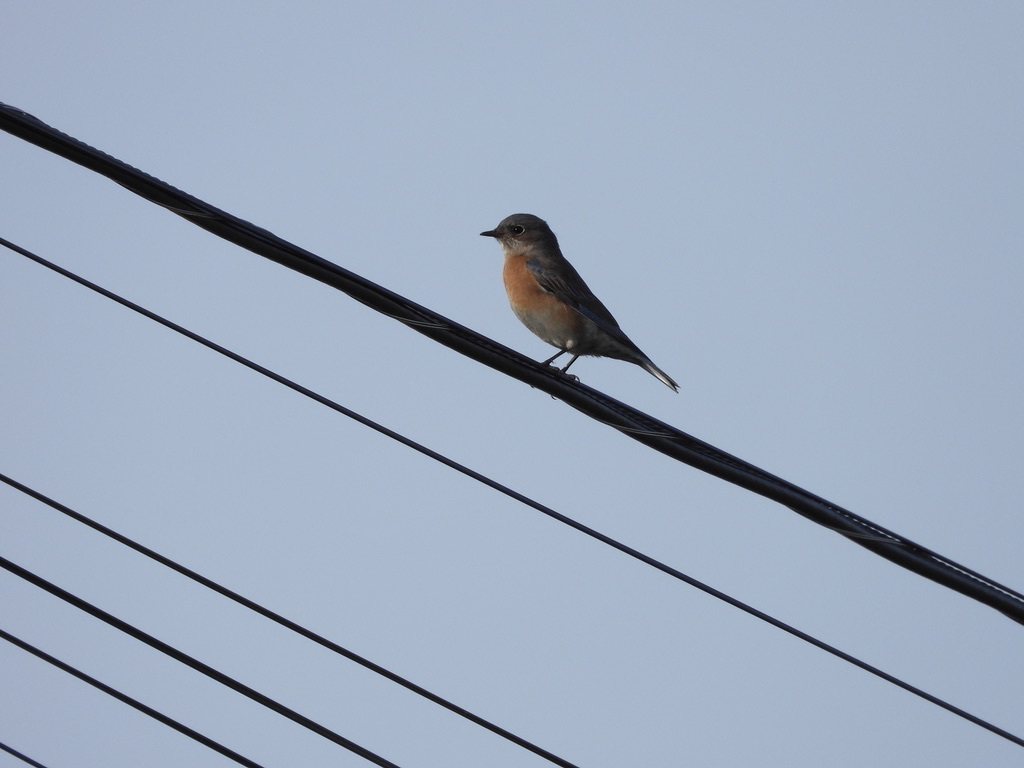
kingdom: Animalia
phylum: Chordata
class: Aves
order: Passeriformes
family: Turdidae
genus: Sialia
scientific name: Sialia mexicana
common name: Western bluebird
